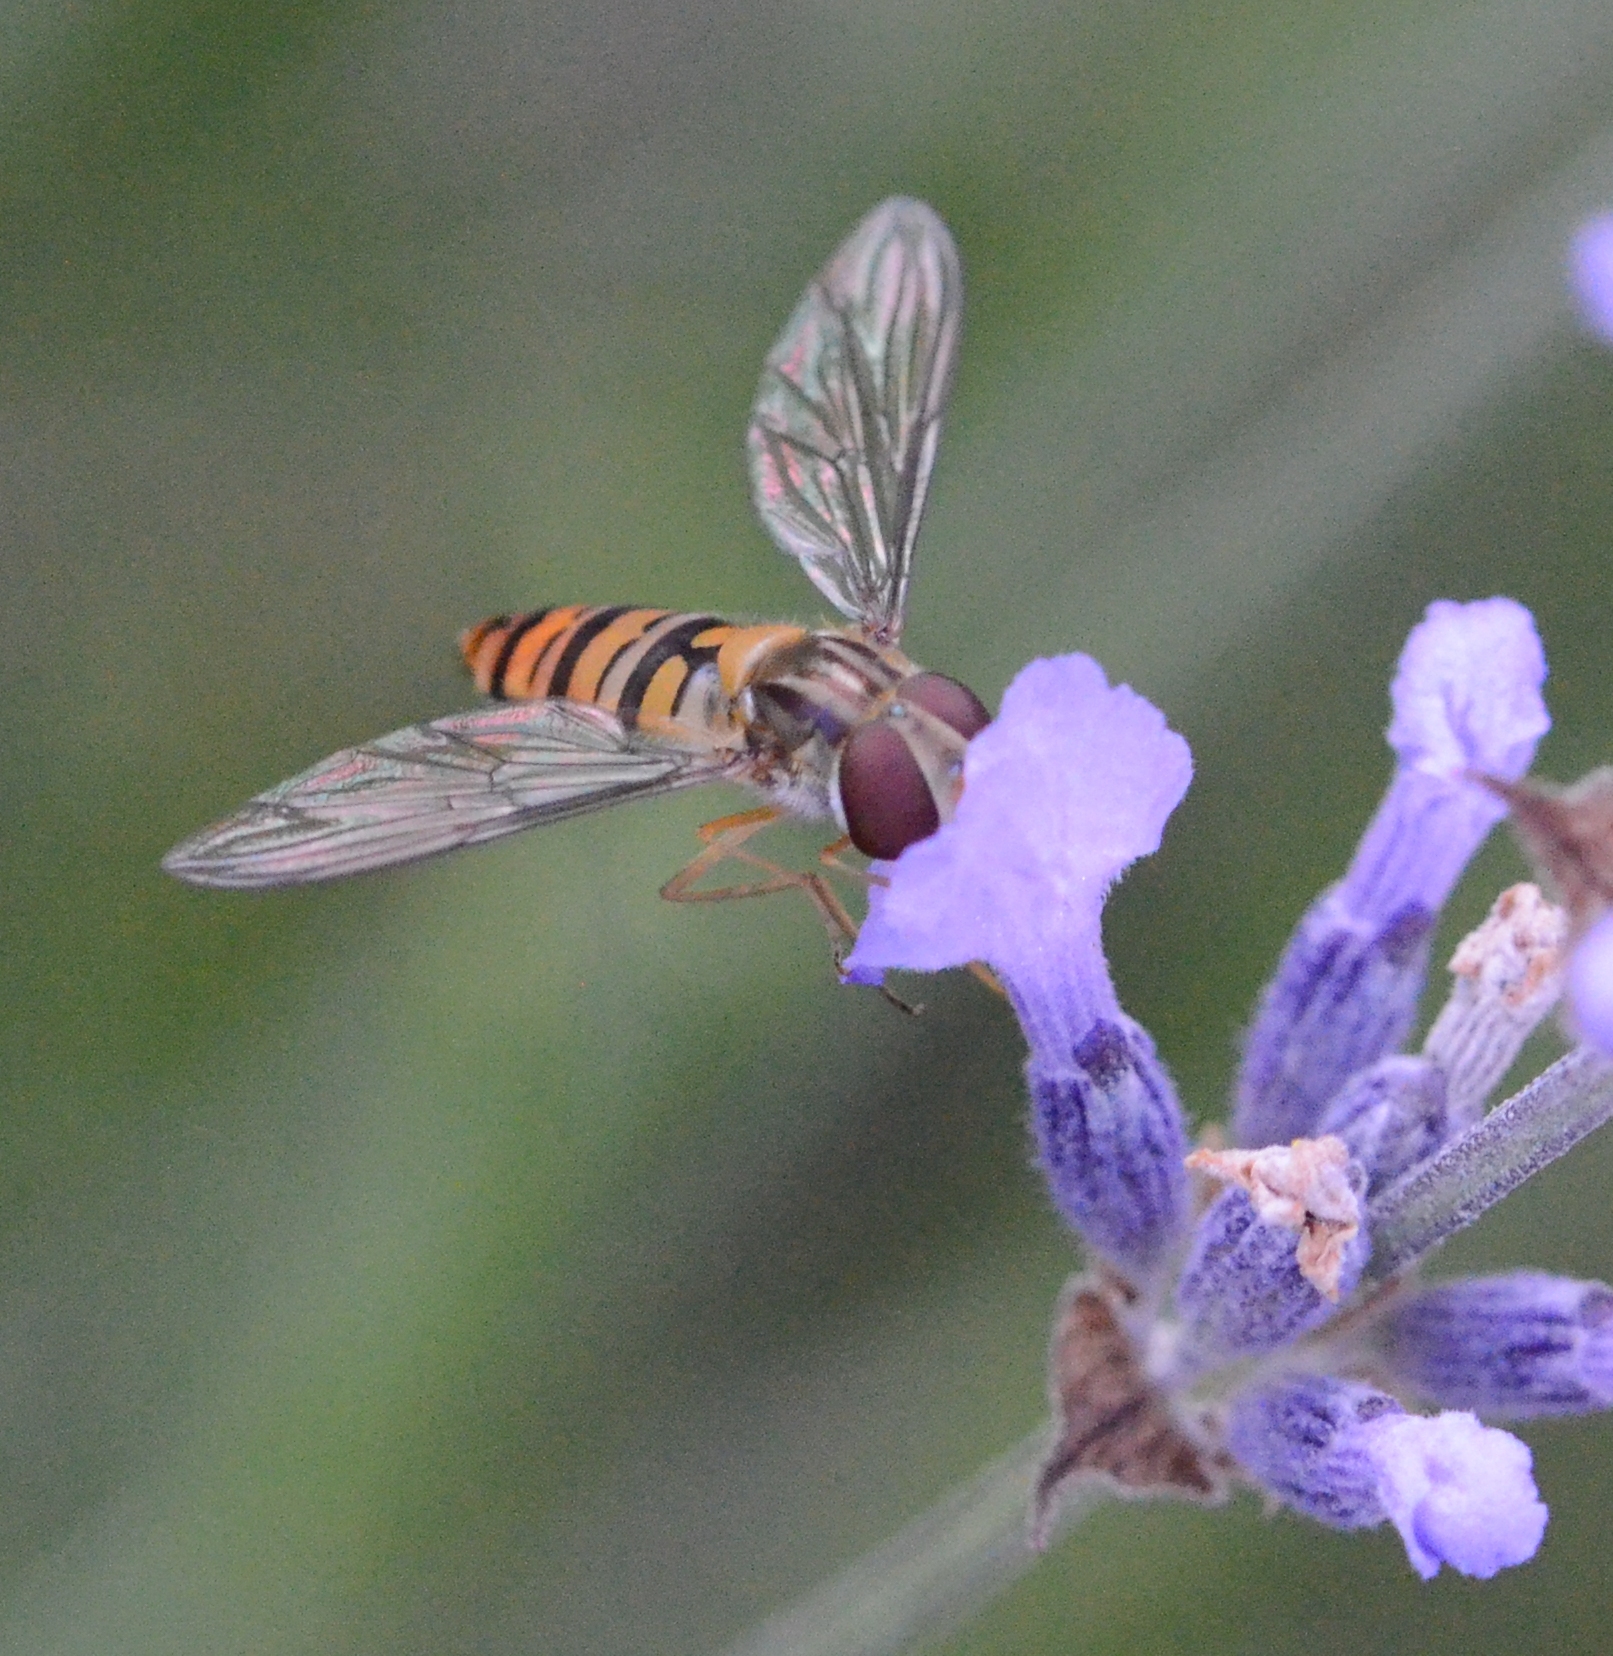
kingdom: Animalia
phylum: Arthropoda
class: Insecta
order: Diptera
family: Syrphidae
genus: Episyrphus
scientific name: Episyrphus balteatus
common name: Marmalade hoverfly
